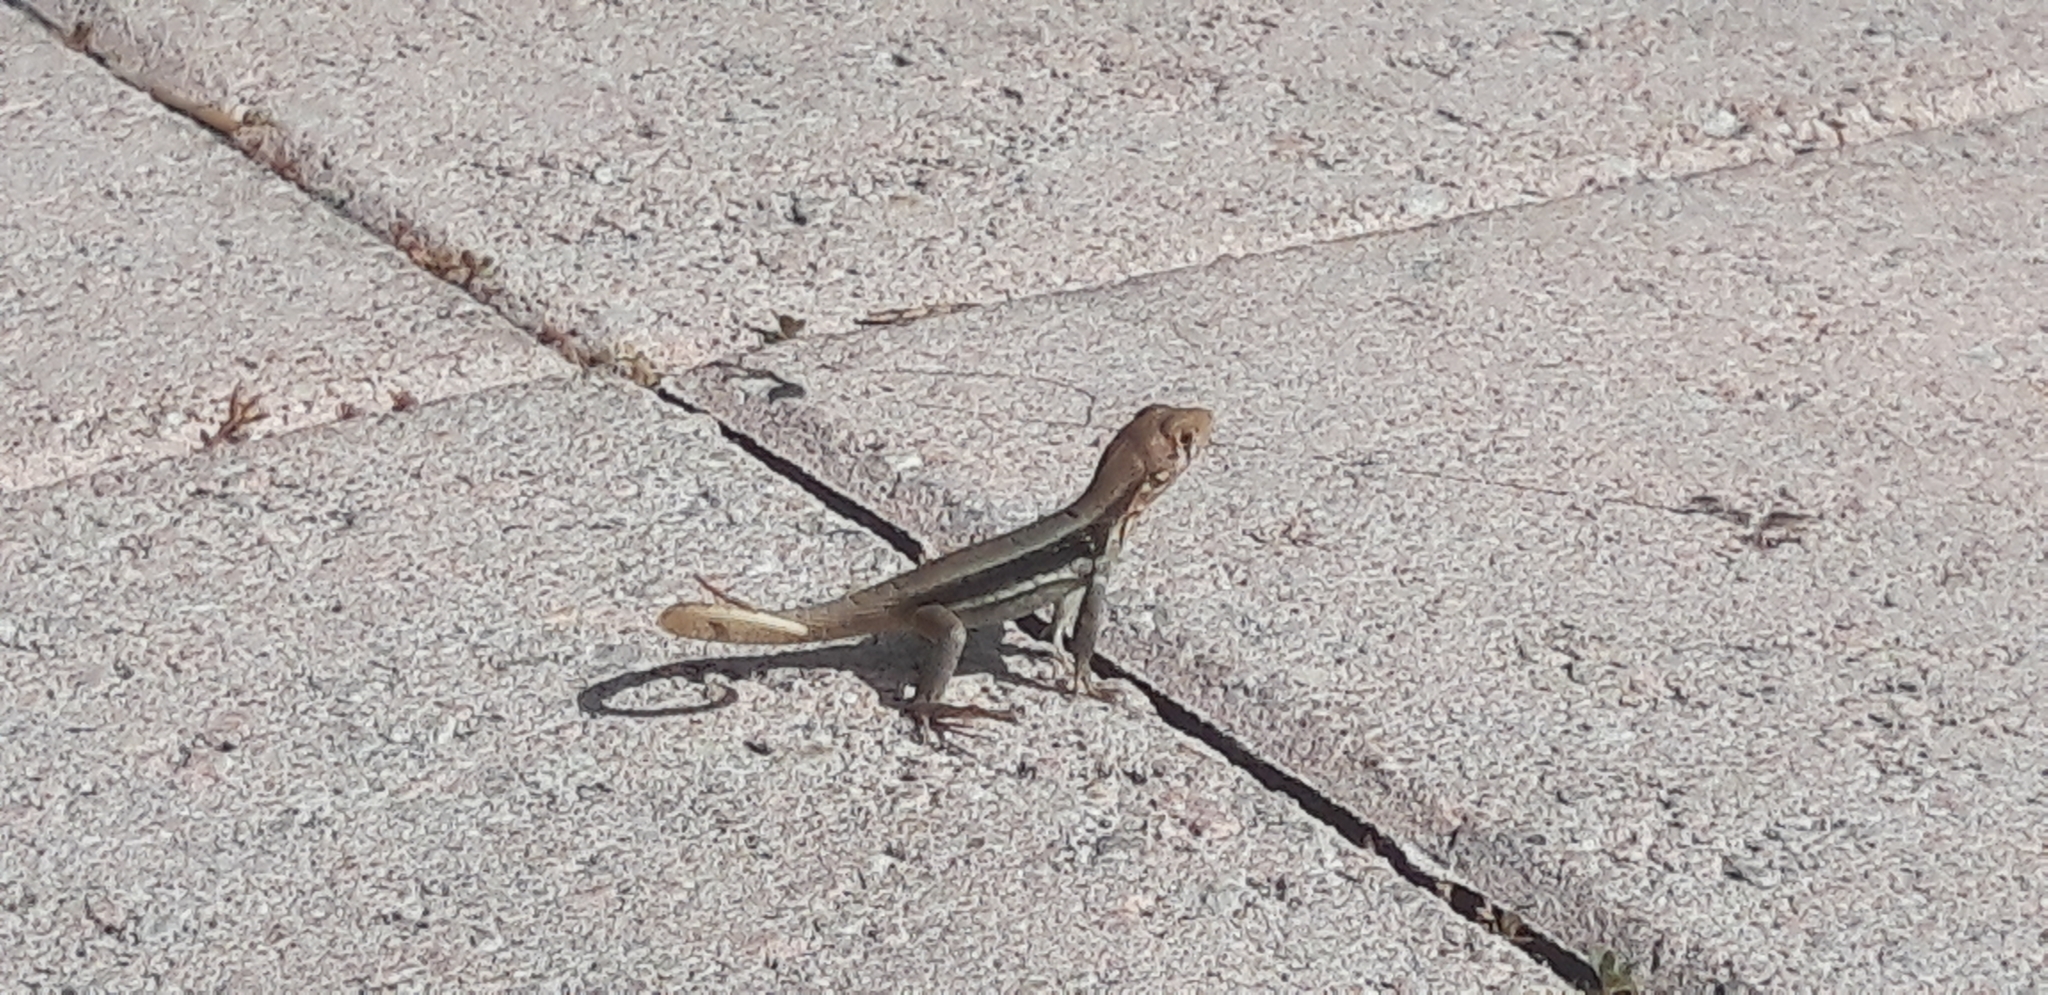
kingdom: Animalia
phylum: Chordata
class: Squamata
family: Leiocephalidae
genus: Leiocephalus
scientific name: Leiocephalus psammodromus
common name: Bastion cay curlytail lizard
